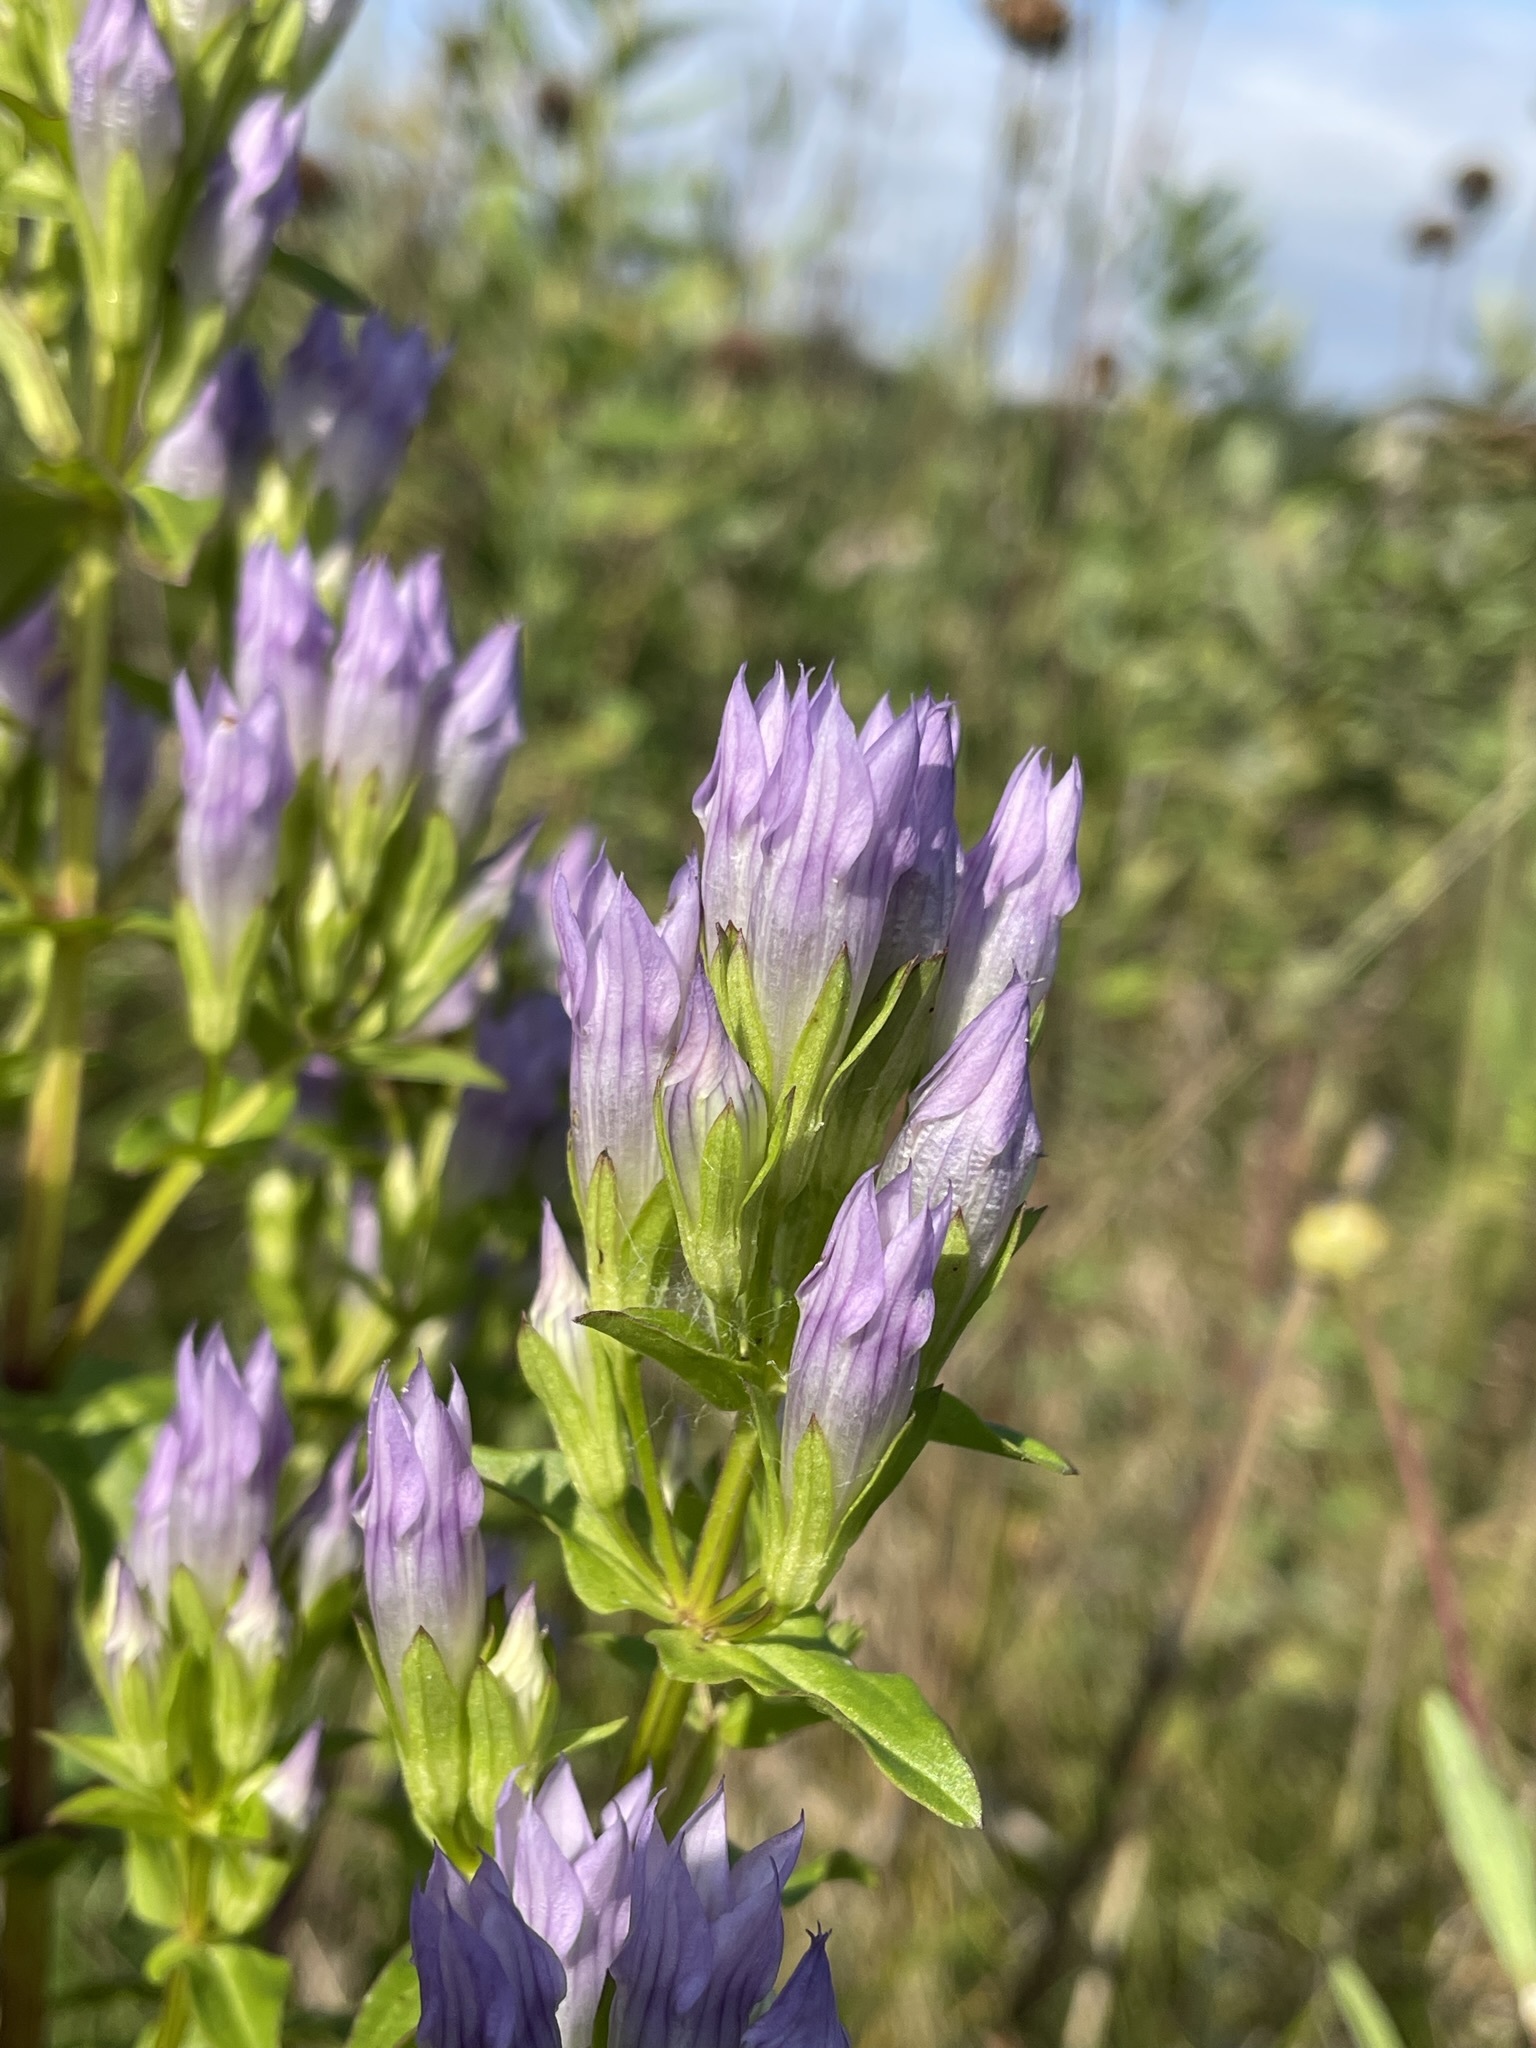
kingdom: Plantae
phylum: Tracheophyta
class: Magnoliopsida
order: Gentianales
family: Gentianaceae
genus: Gentianella
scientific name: Gentianella quinquefolia
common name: Agueweed
